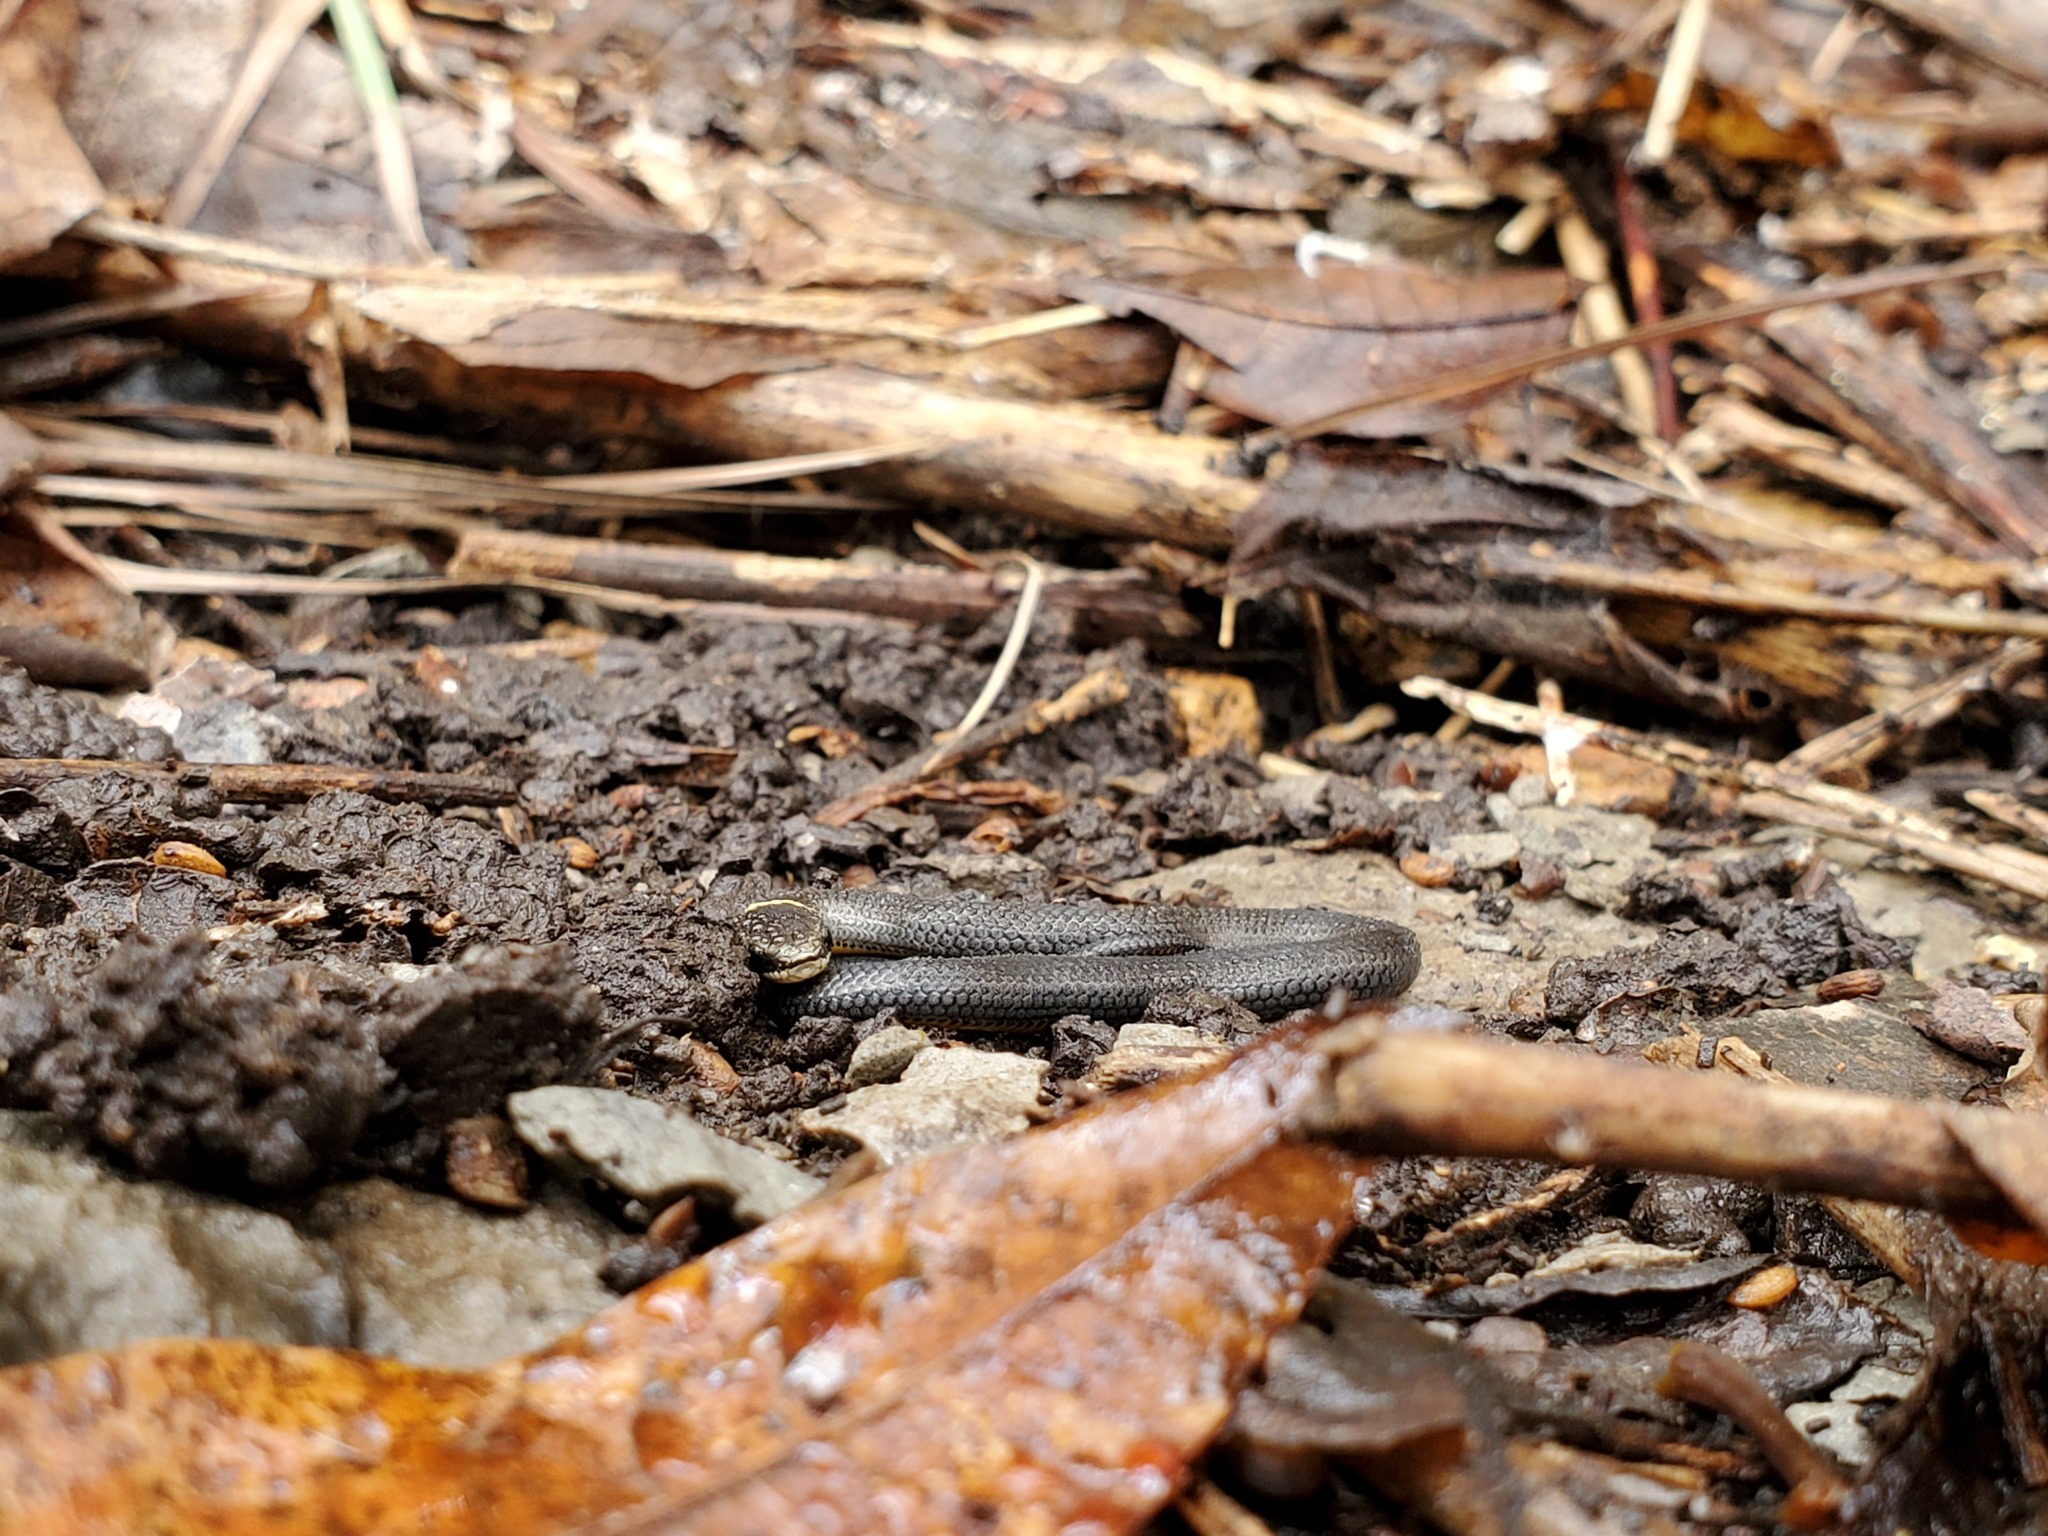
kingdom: Animalia
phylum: Chordata
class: Squamata
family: Colubridae
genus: Diadophis
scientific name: Diadophis punctatus
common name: Ringneck snake
